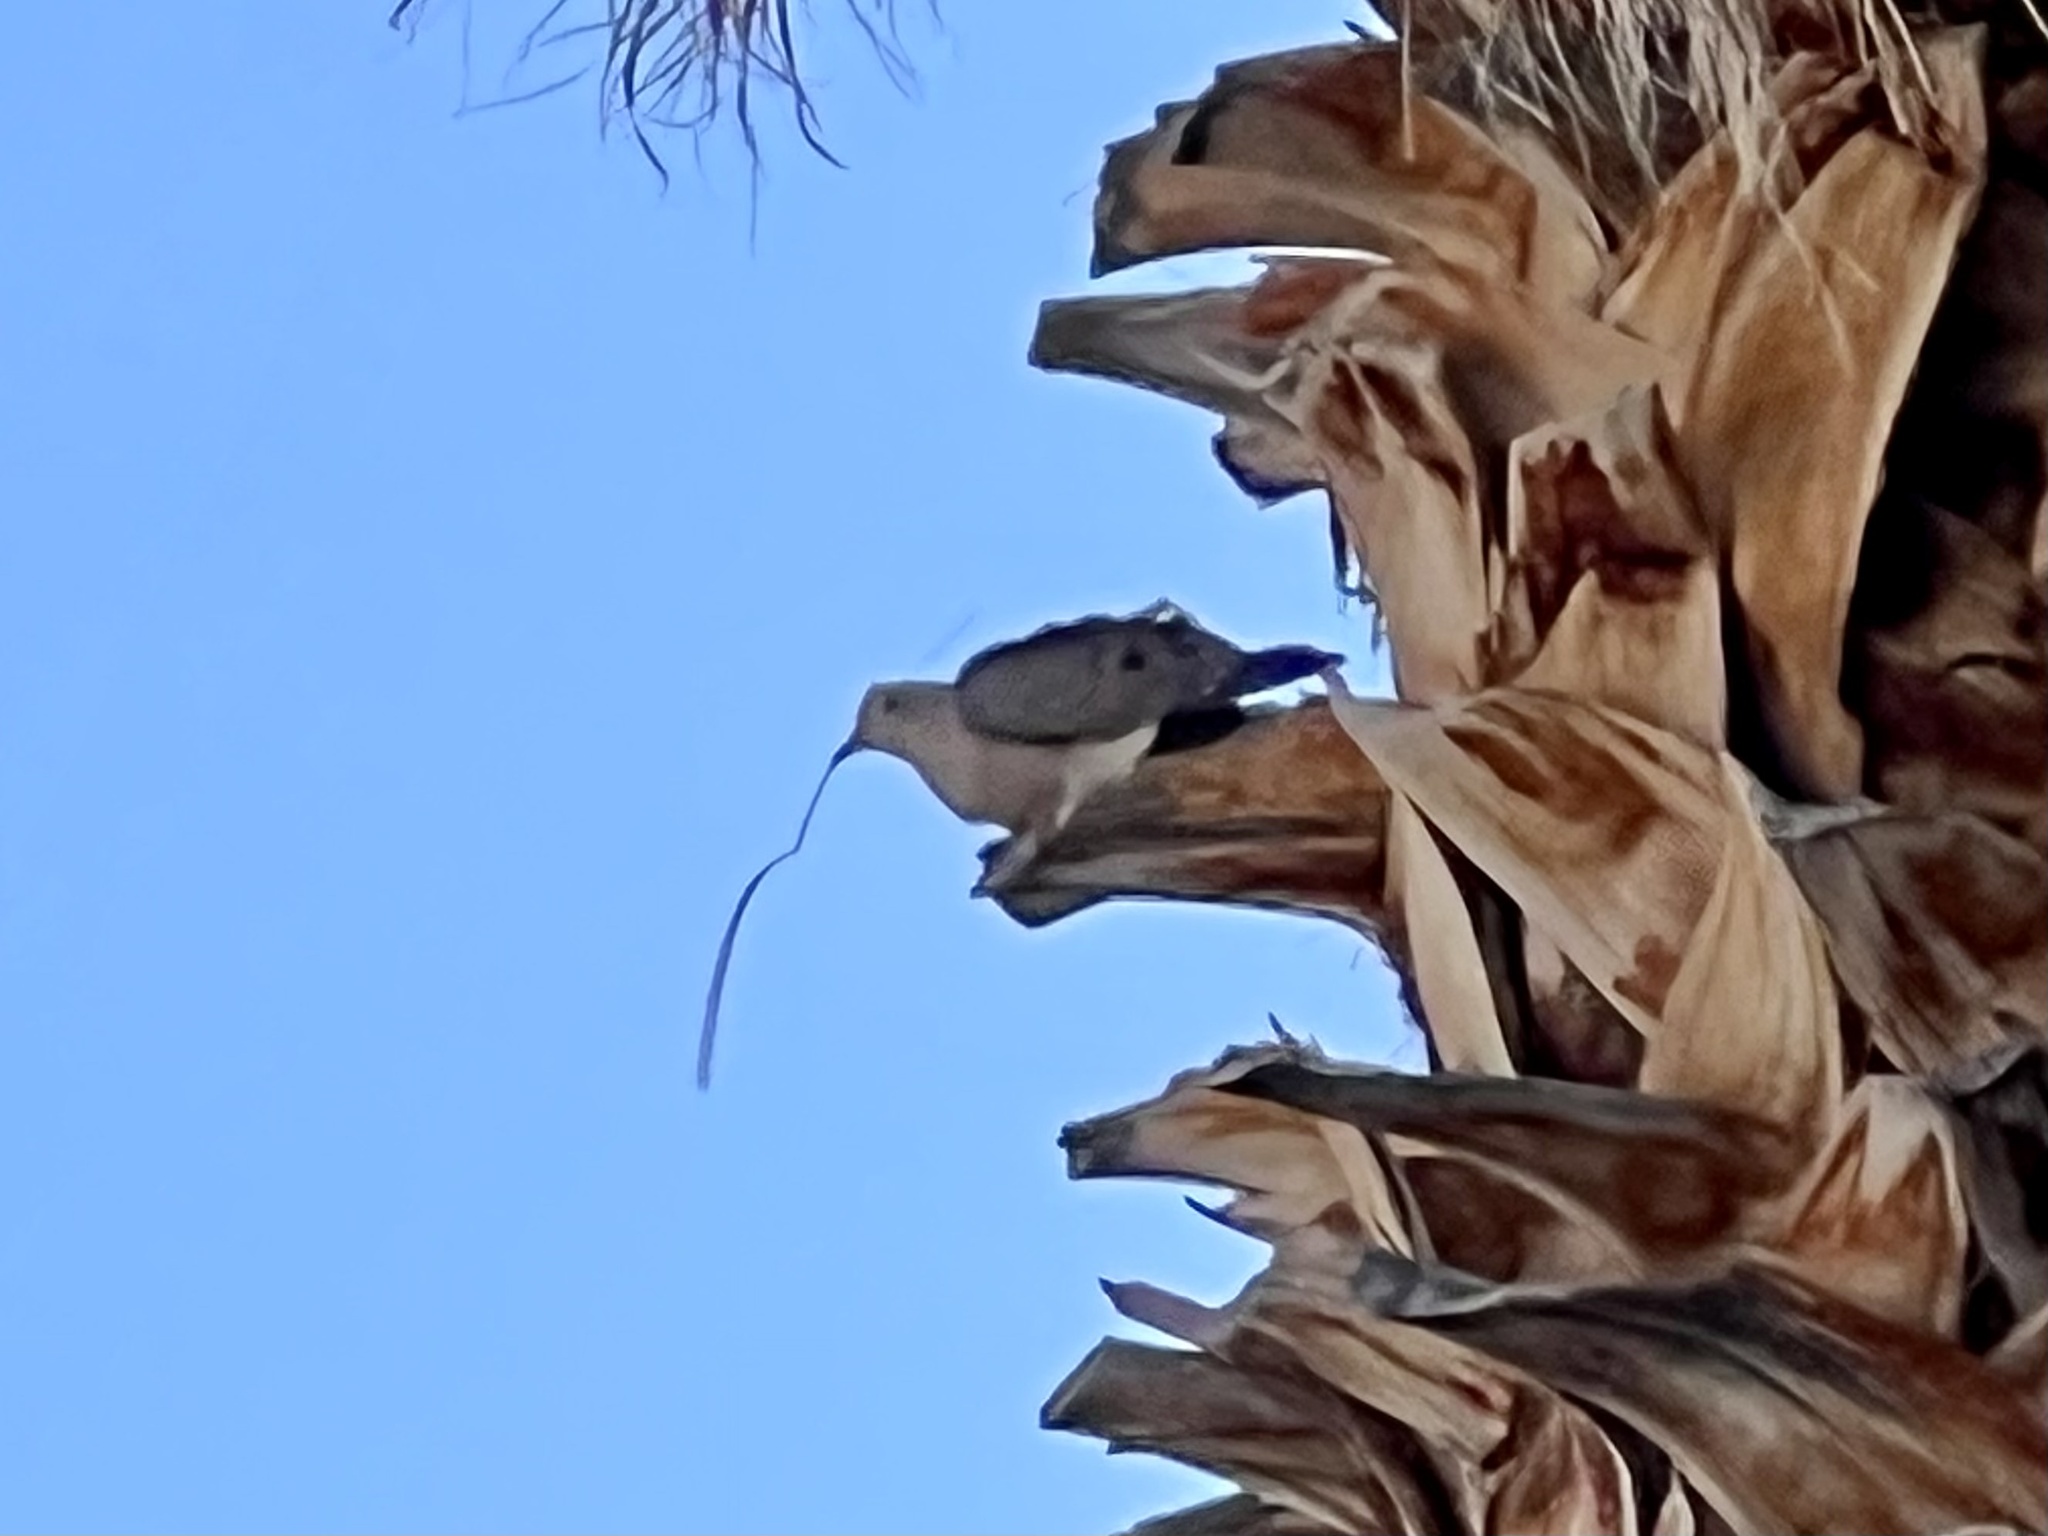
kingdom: Animalia
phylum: Chordata
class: Aves
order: Columbiformes
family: Columbidae
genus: Zenaida
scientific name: Zenaida macroura
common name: Mourning dove
